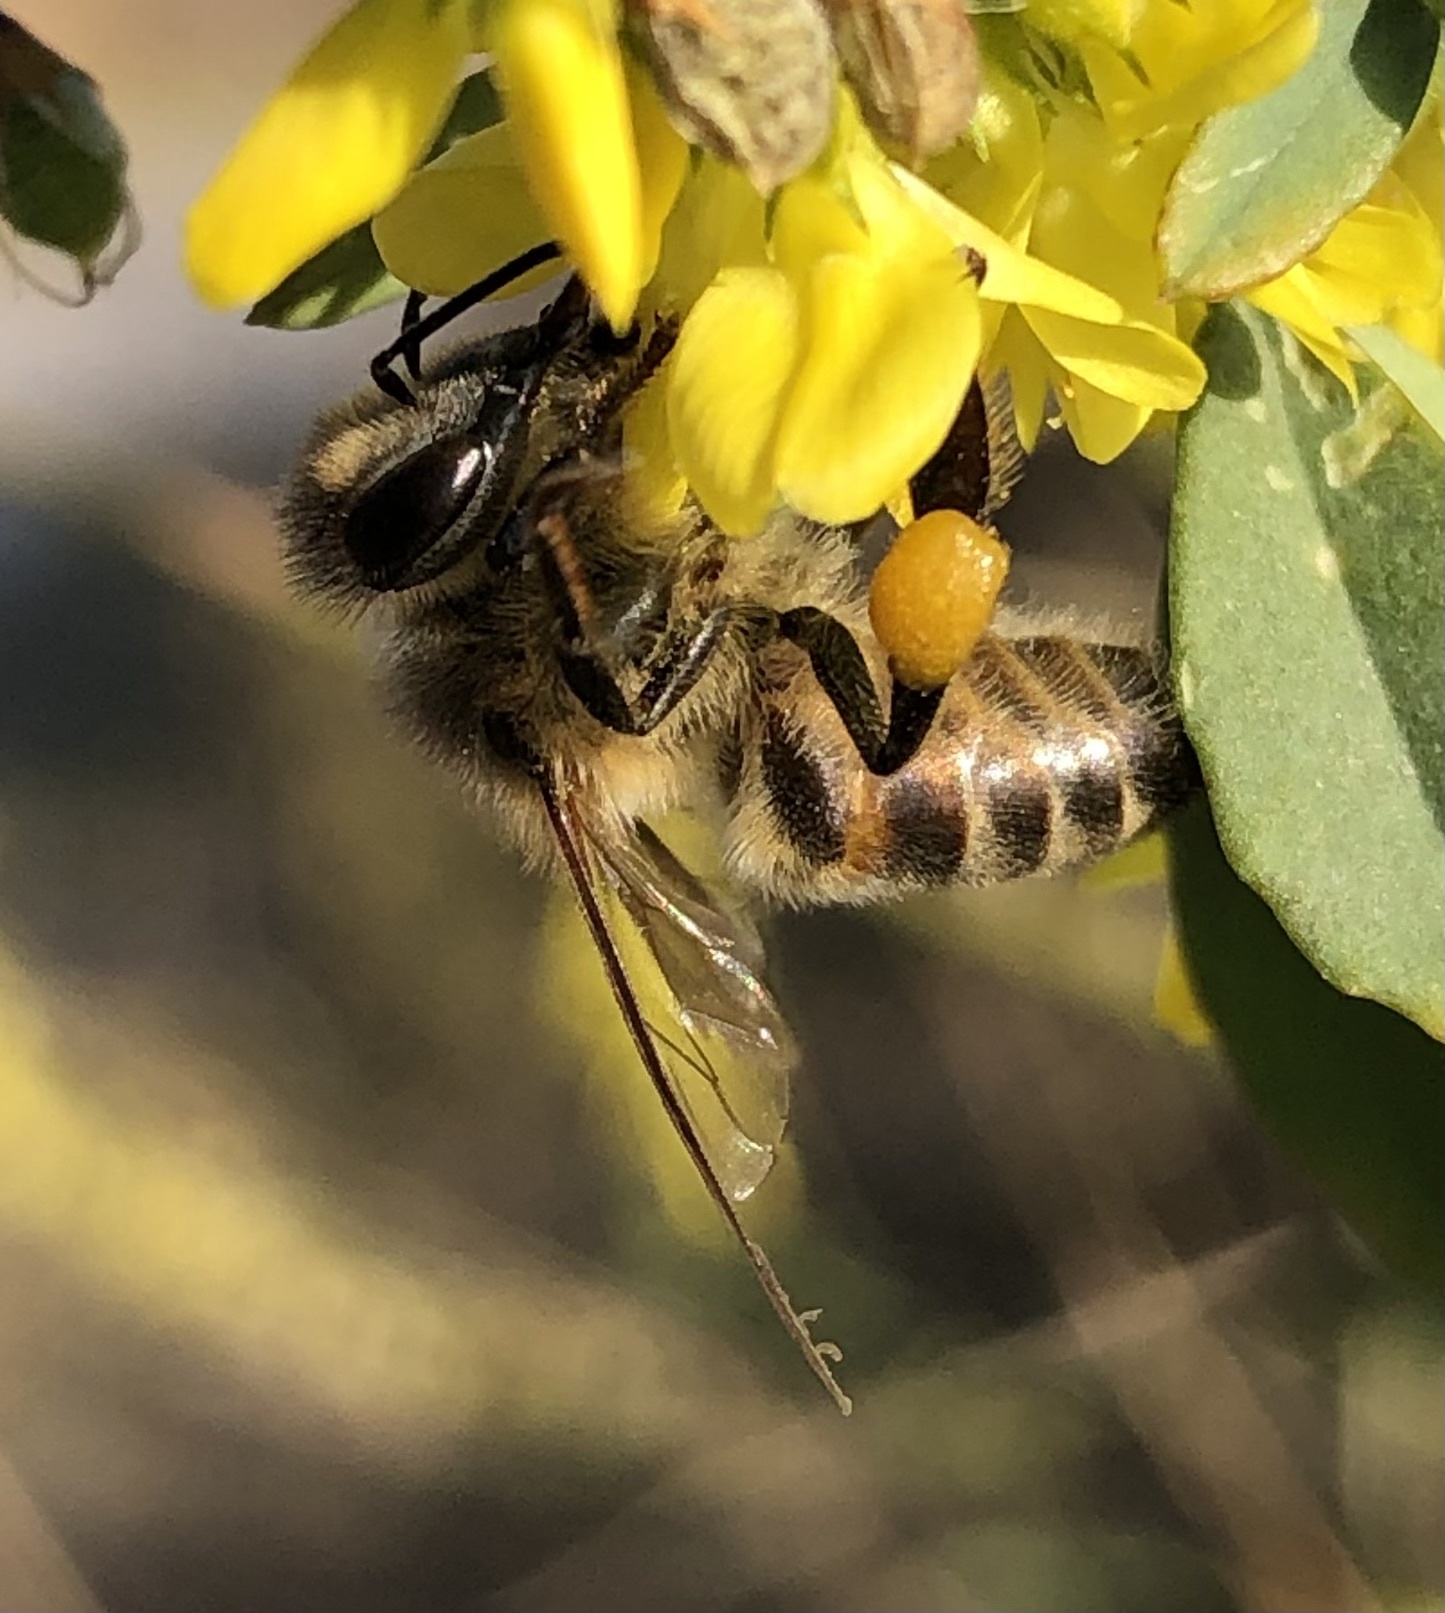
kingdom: Animalia
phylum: Arthropoda
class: Insecta
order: Hymenoptera
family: Apidae
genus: Apis
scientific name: Apis mellifera
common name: Honey bee
